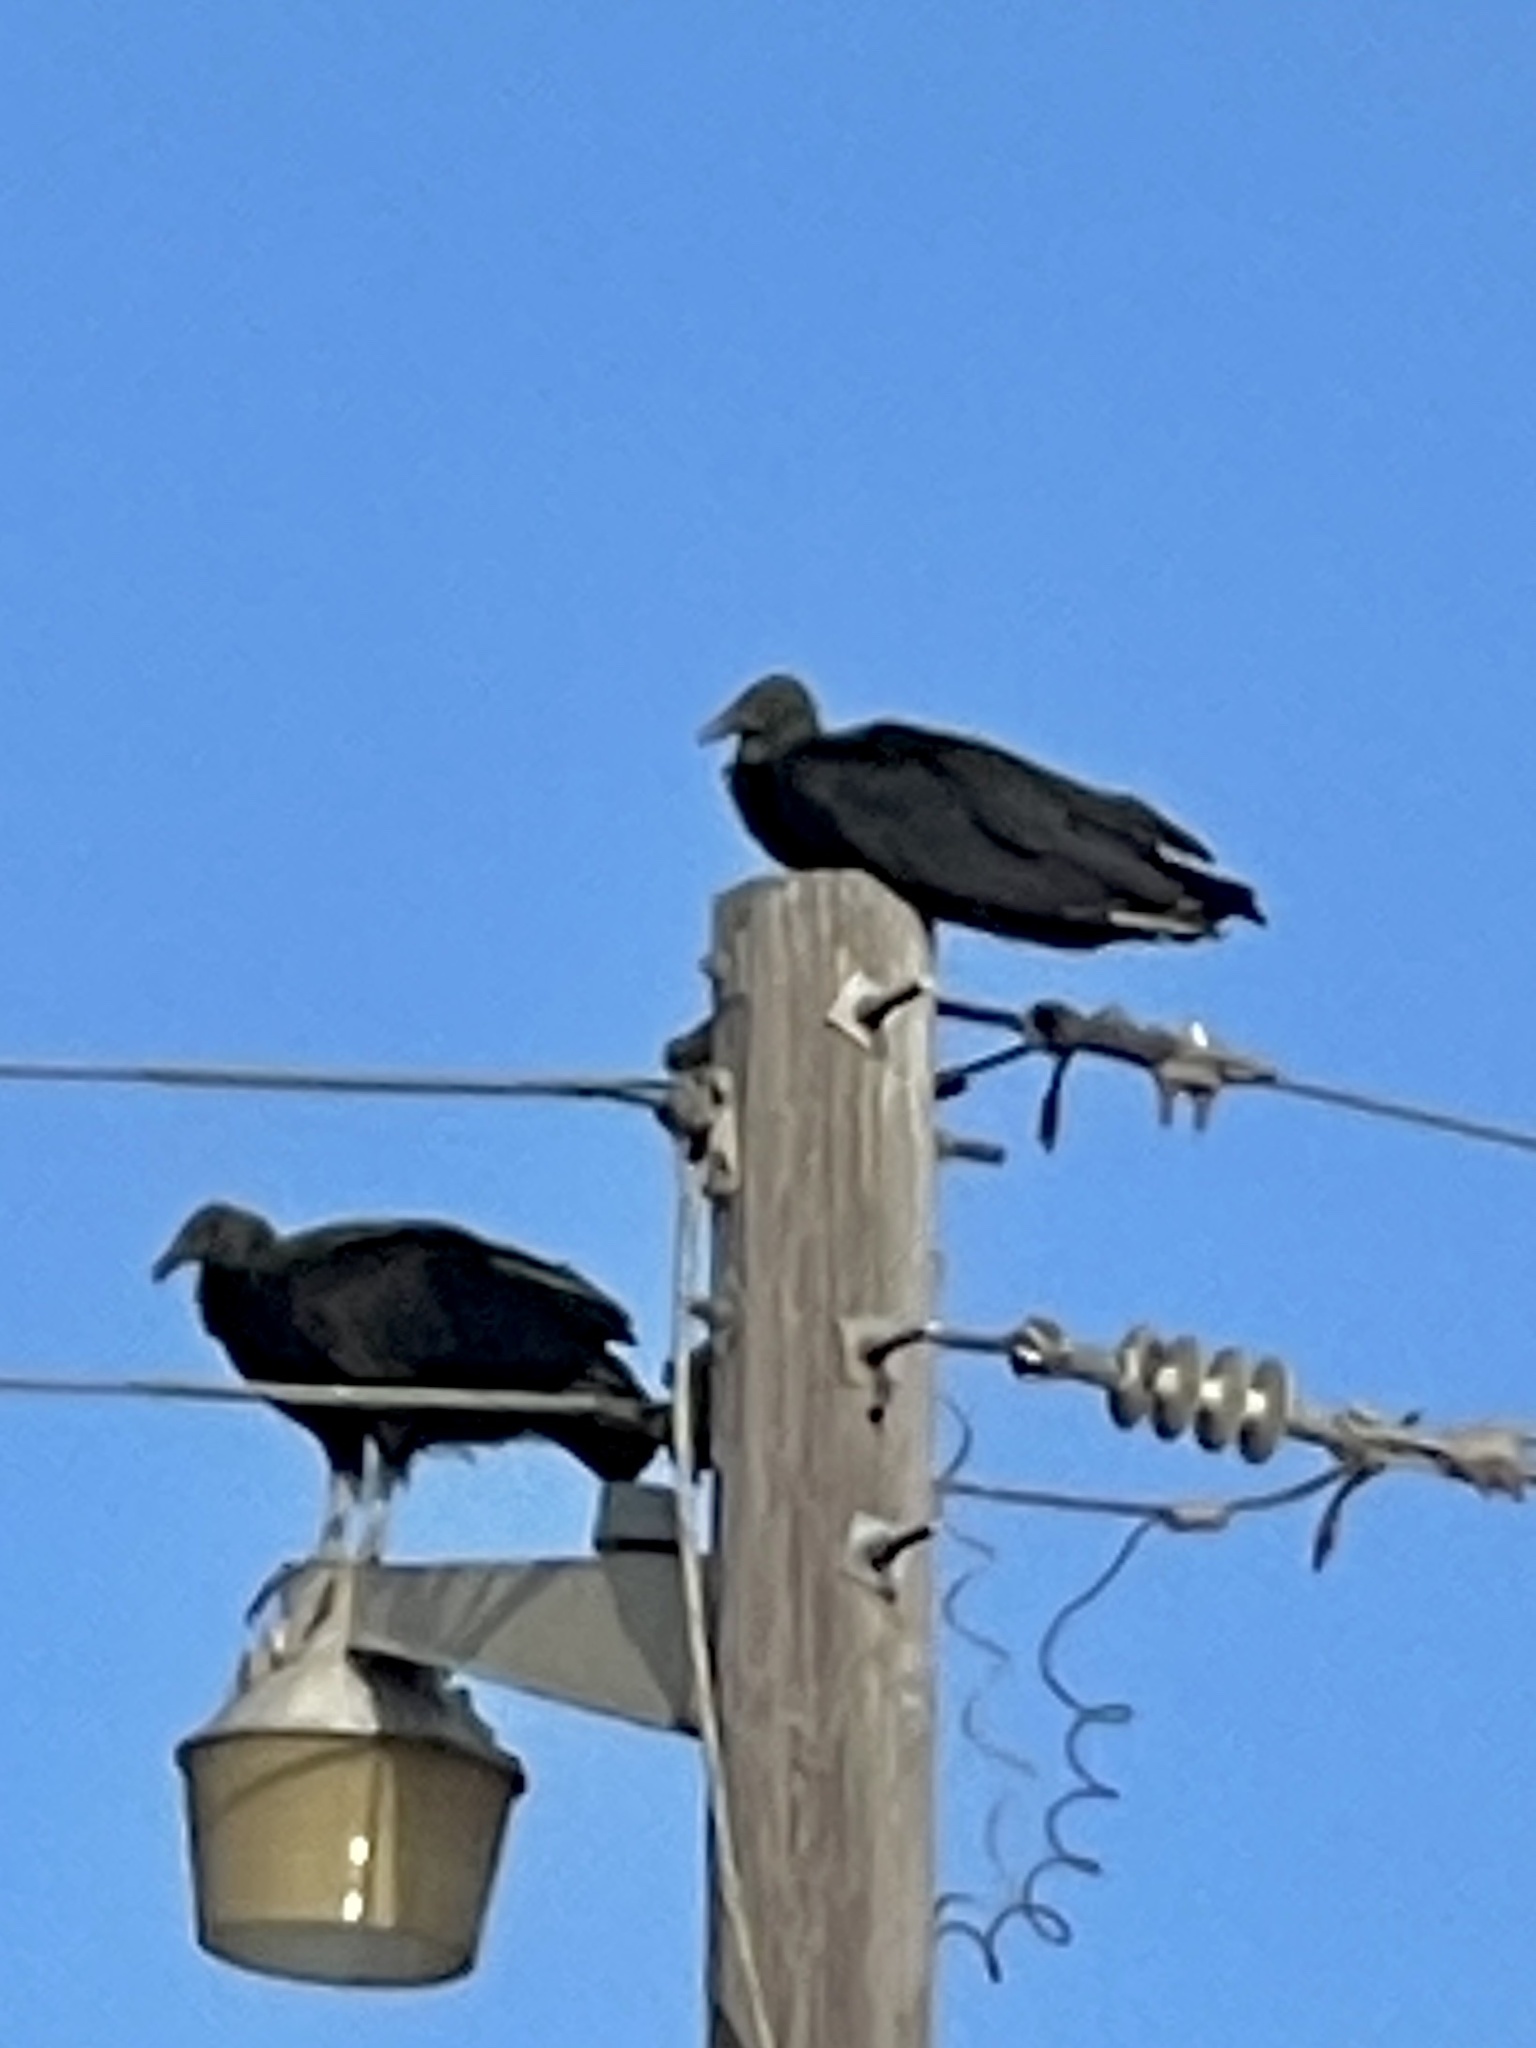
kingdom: Animalia
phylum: Chordata
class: Aves
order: Accipitriformes
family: Cathartidae
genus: Coragyps
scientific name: Coragyps atratus
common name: Black vulture
